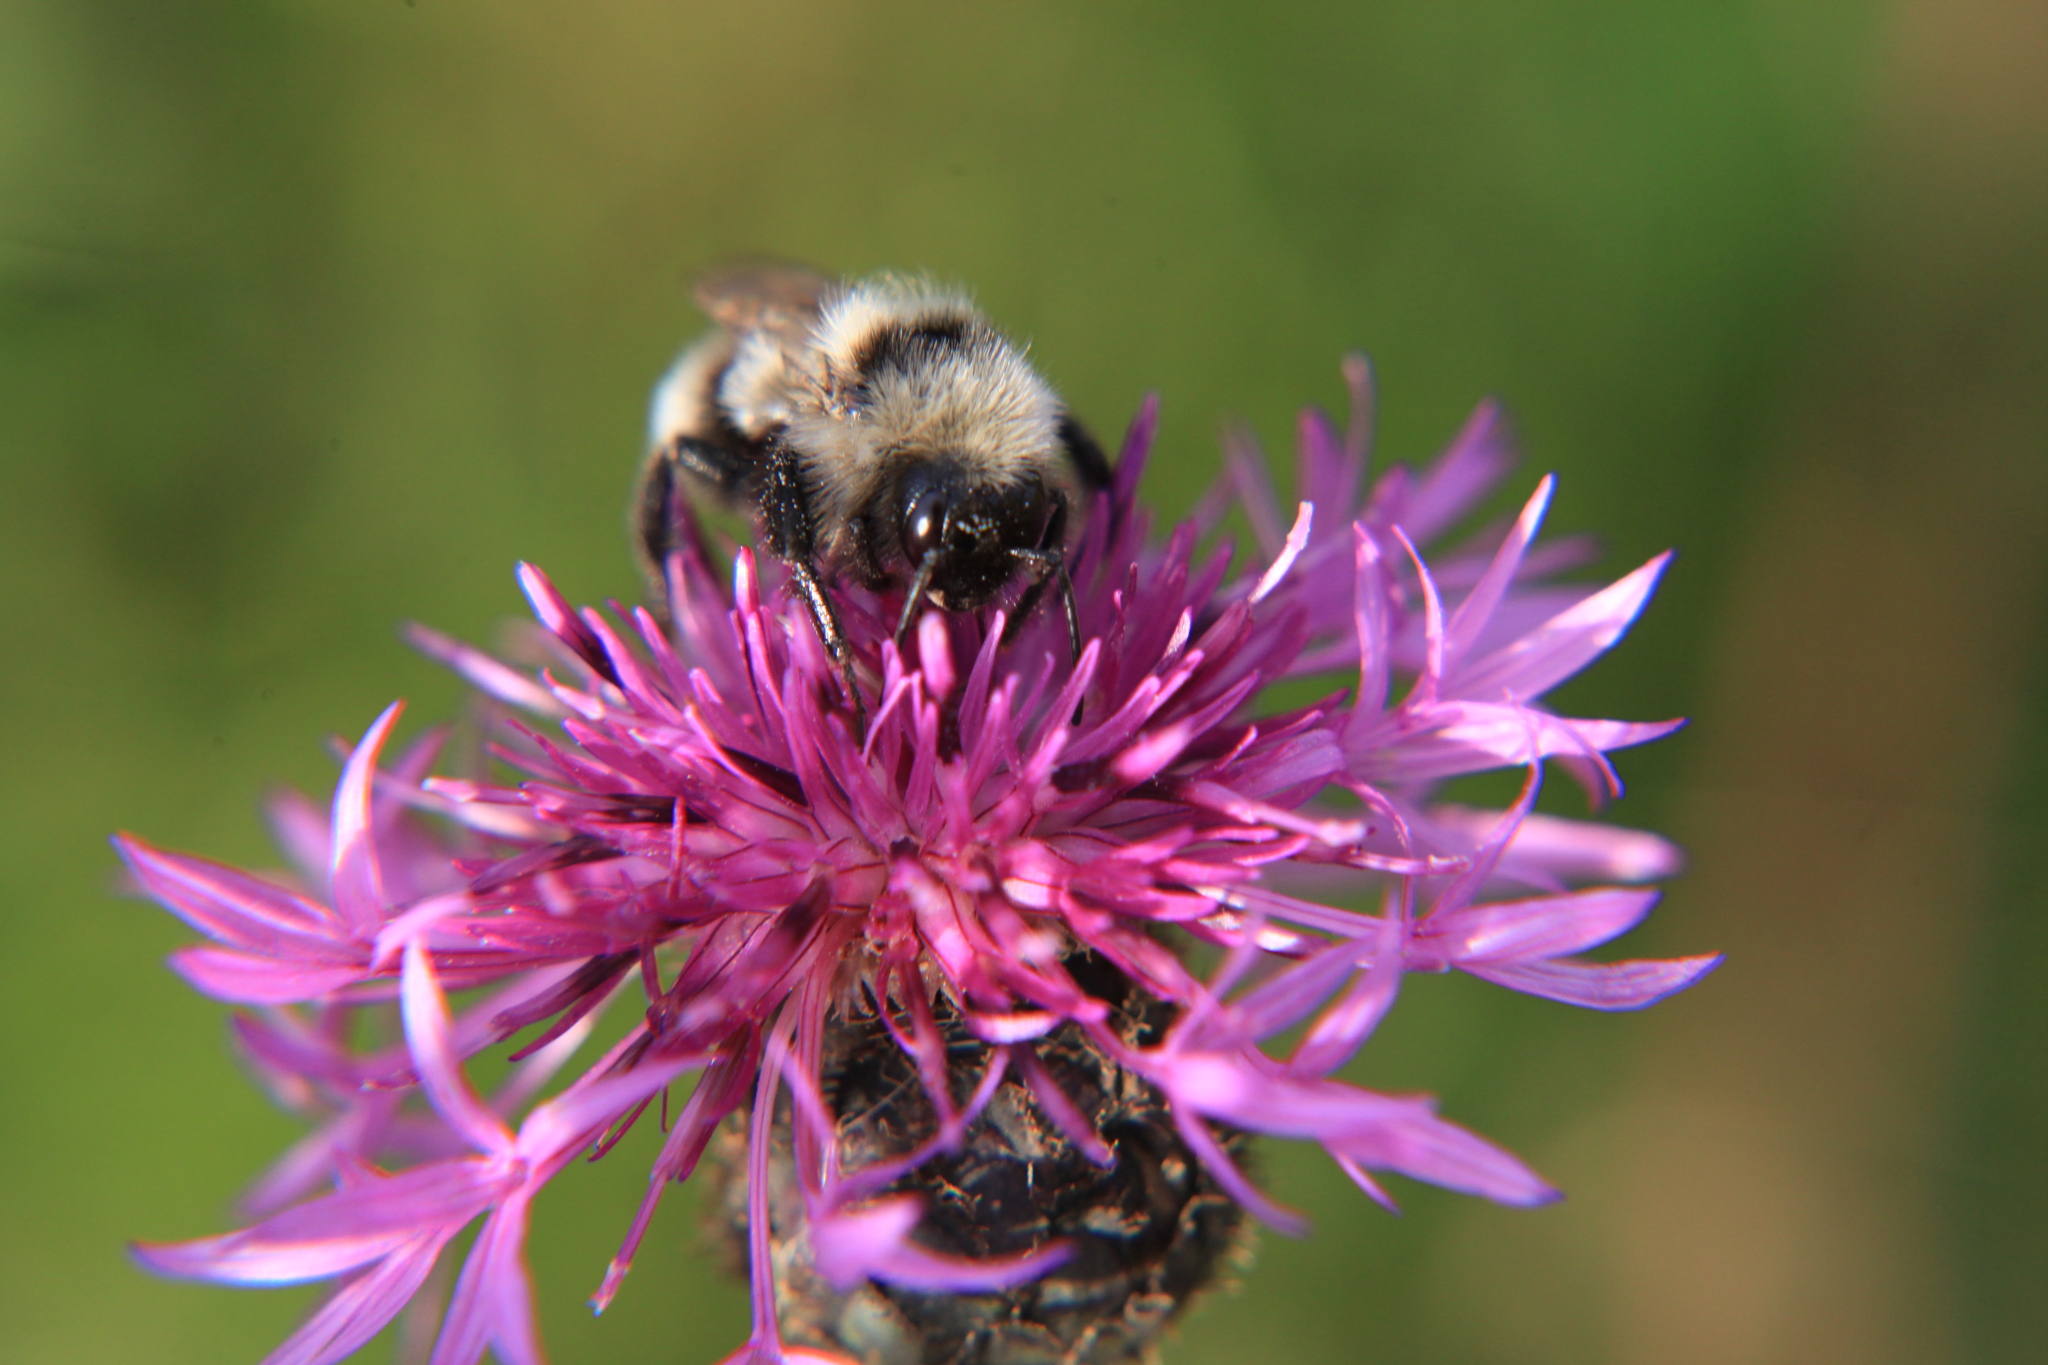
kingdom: Plantae
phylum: Tracheophyta
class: Magnoliopsida
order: Asterales
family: Asteraceae
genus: Centaurea
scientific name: Centaurea scabiosa
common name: Greater knapweed
